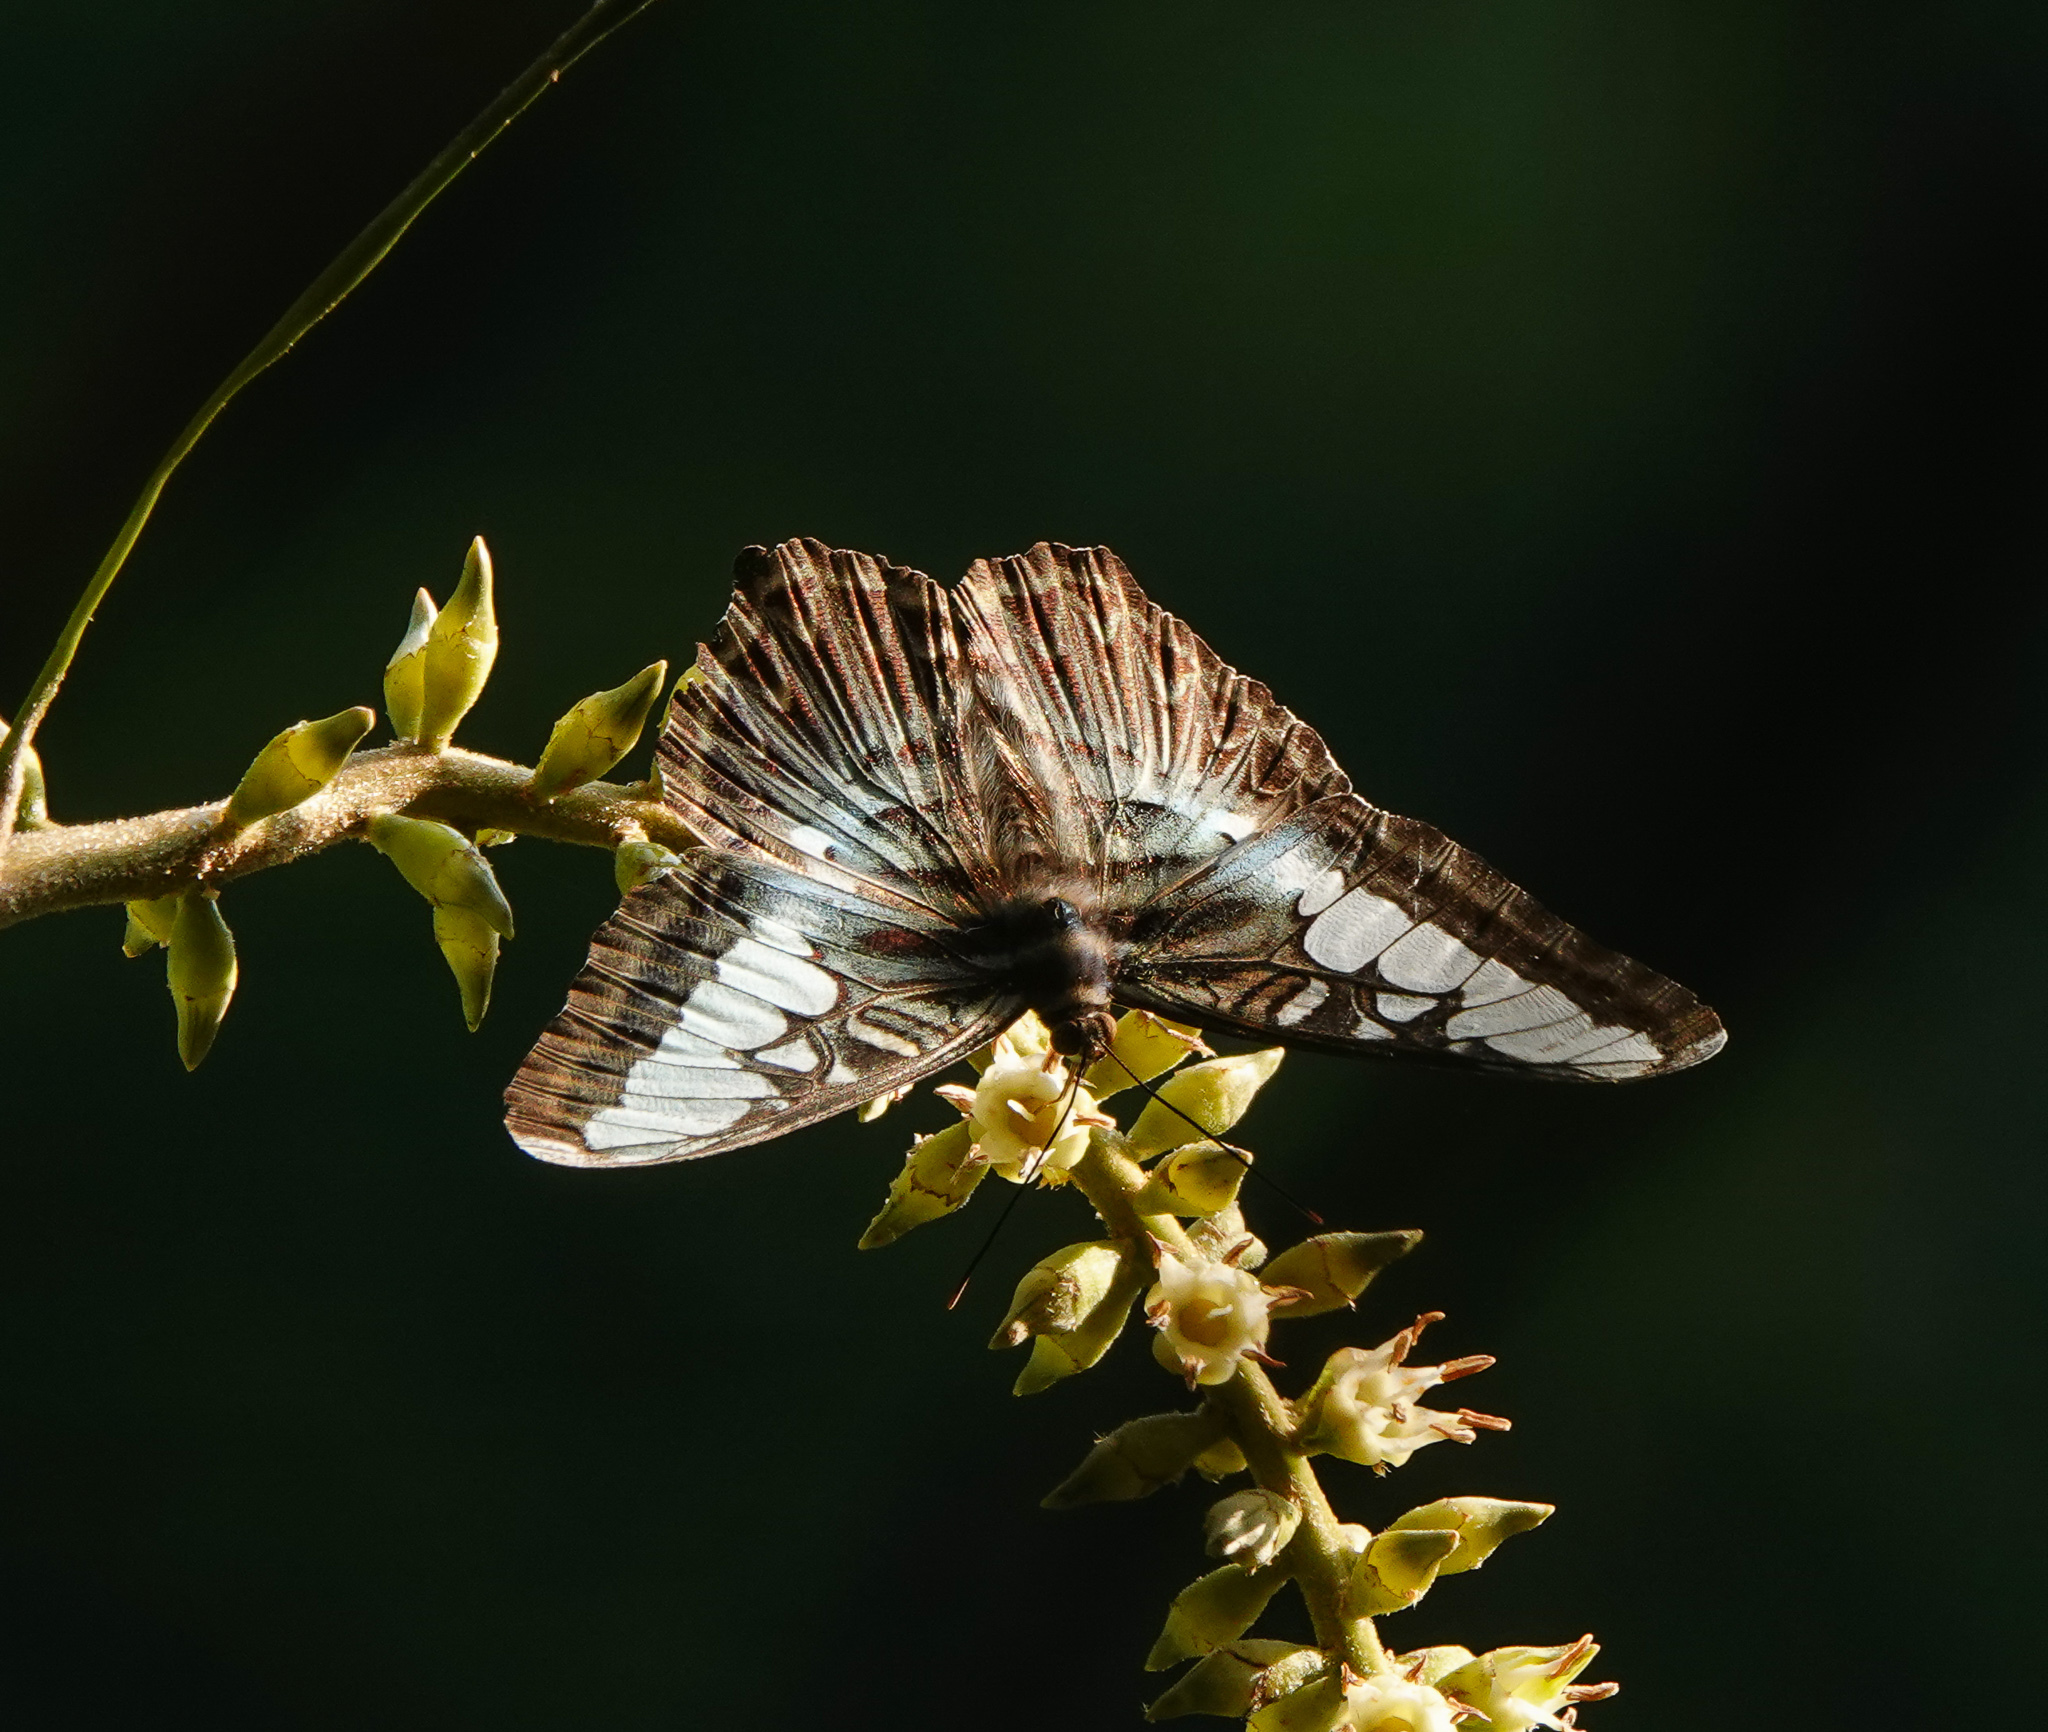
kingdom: Animalia
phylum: Arthropoda
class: Insecta
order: Lepidoptera
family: Nymphalidae
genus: Kallima
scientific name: Kallima sylvia
